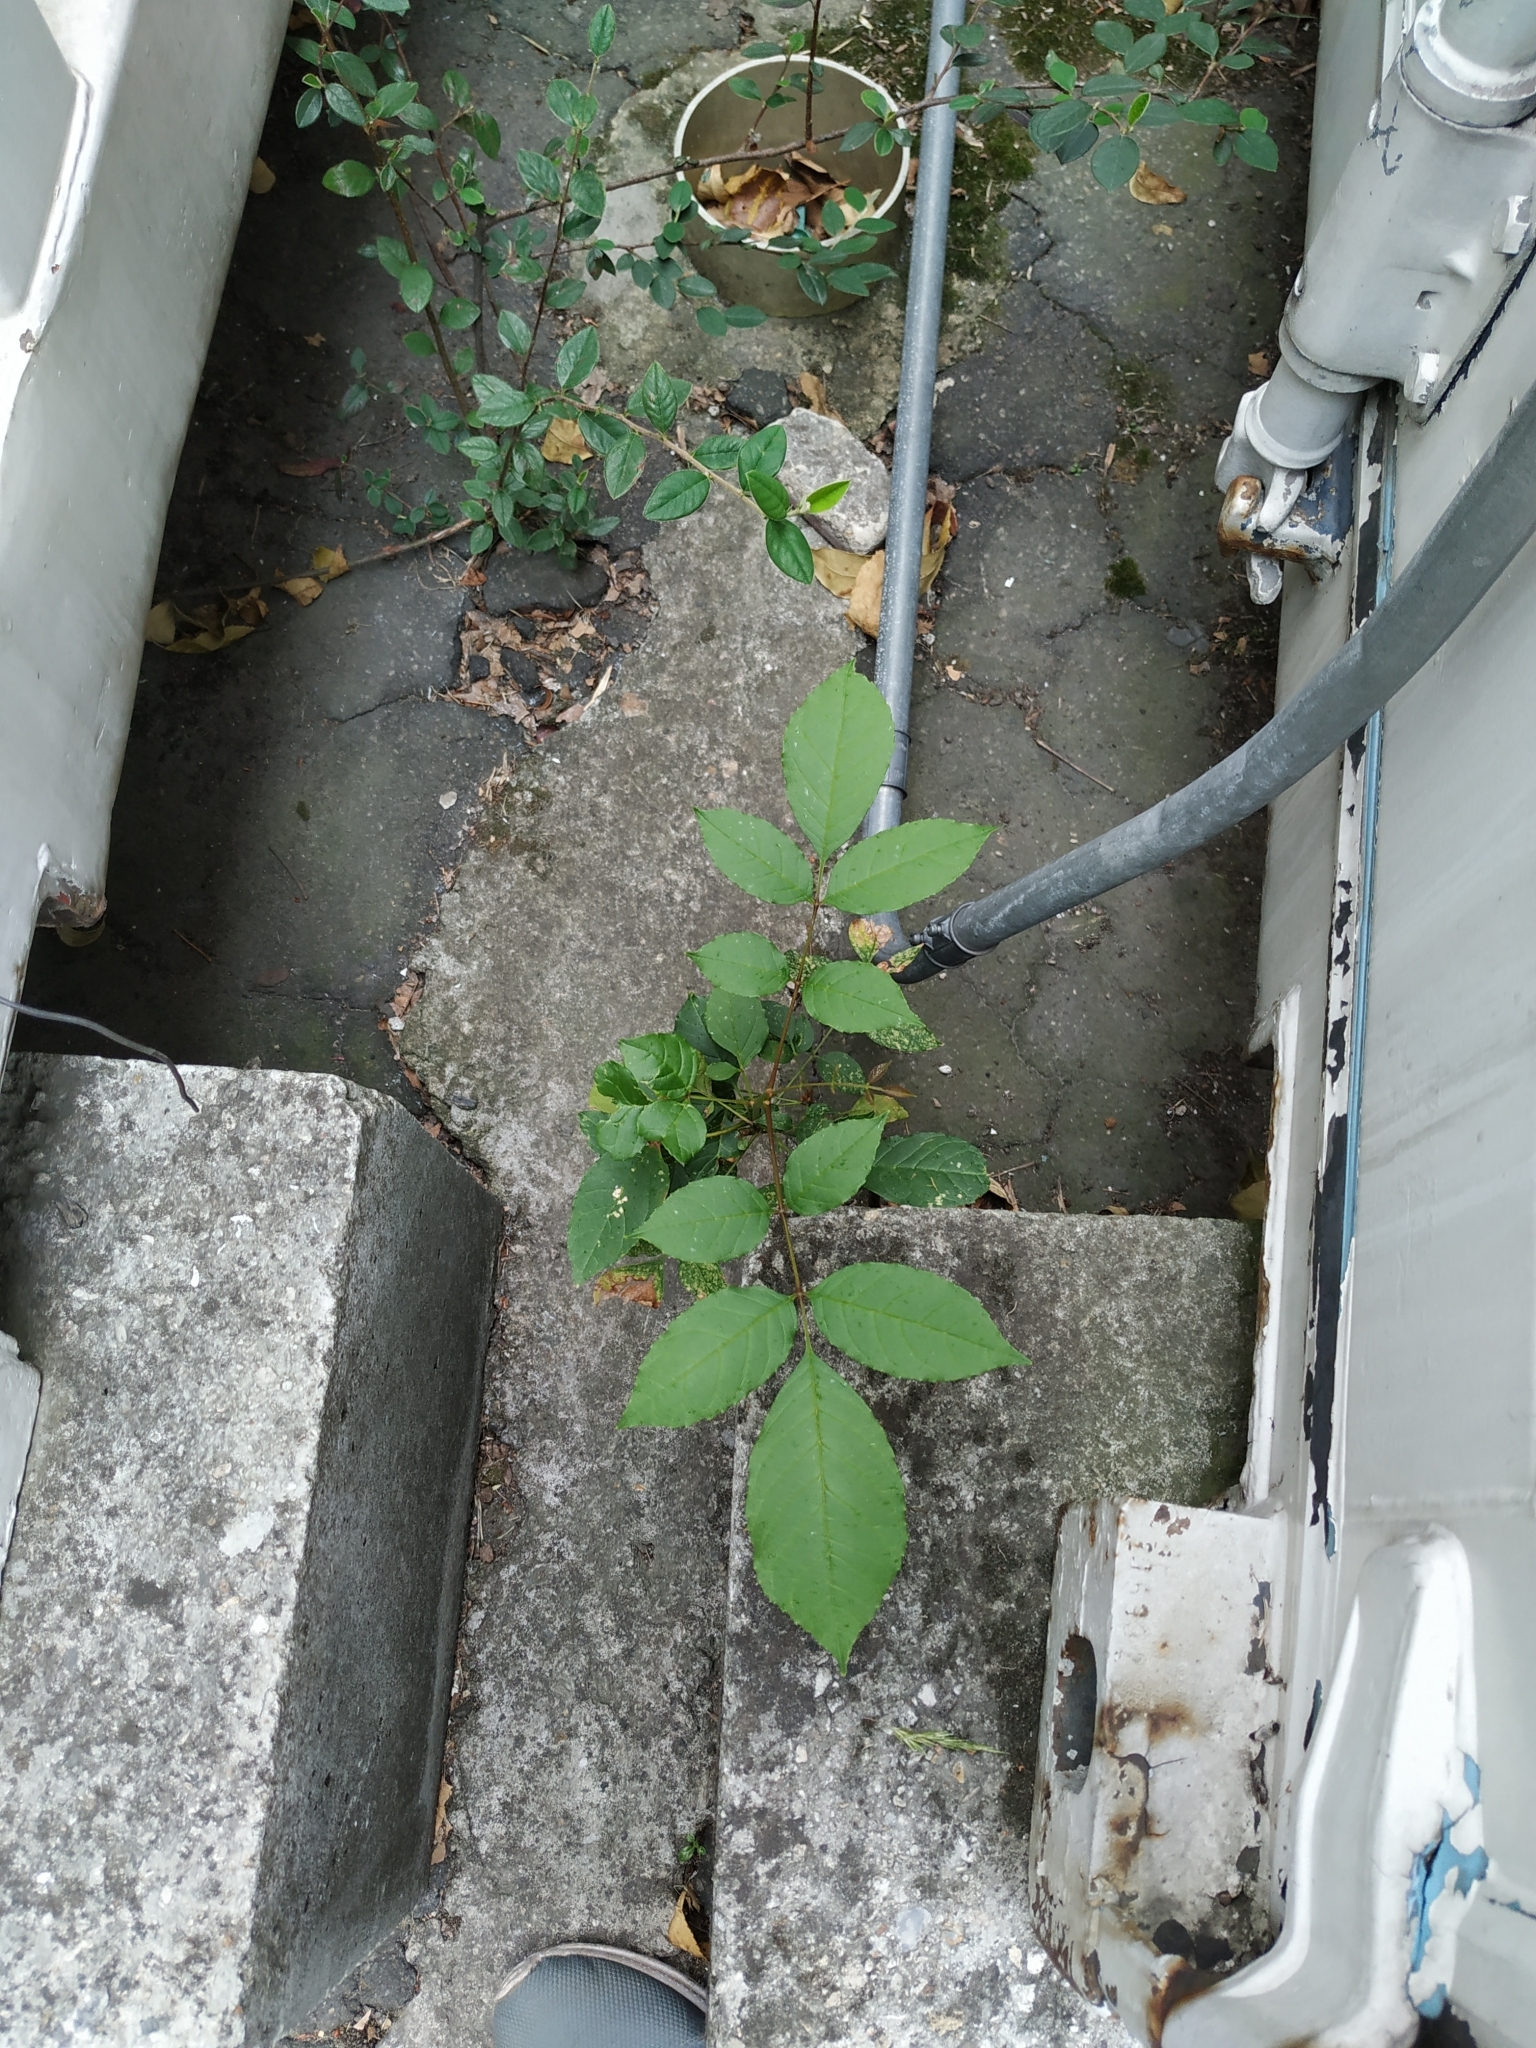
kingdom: Plantae
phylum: Tracheophyta
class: Magnoliopsida
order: Lamiales
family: Oleaceae
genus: Fraxinus
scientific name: Fraxinus uhdei
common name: Shamel ash
